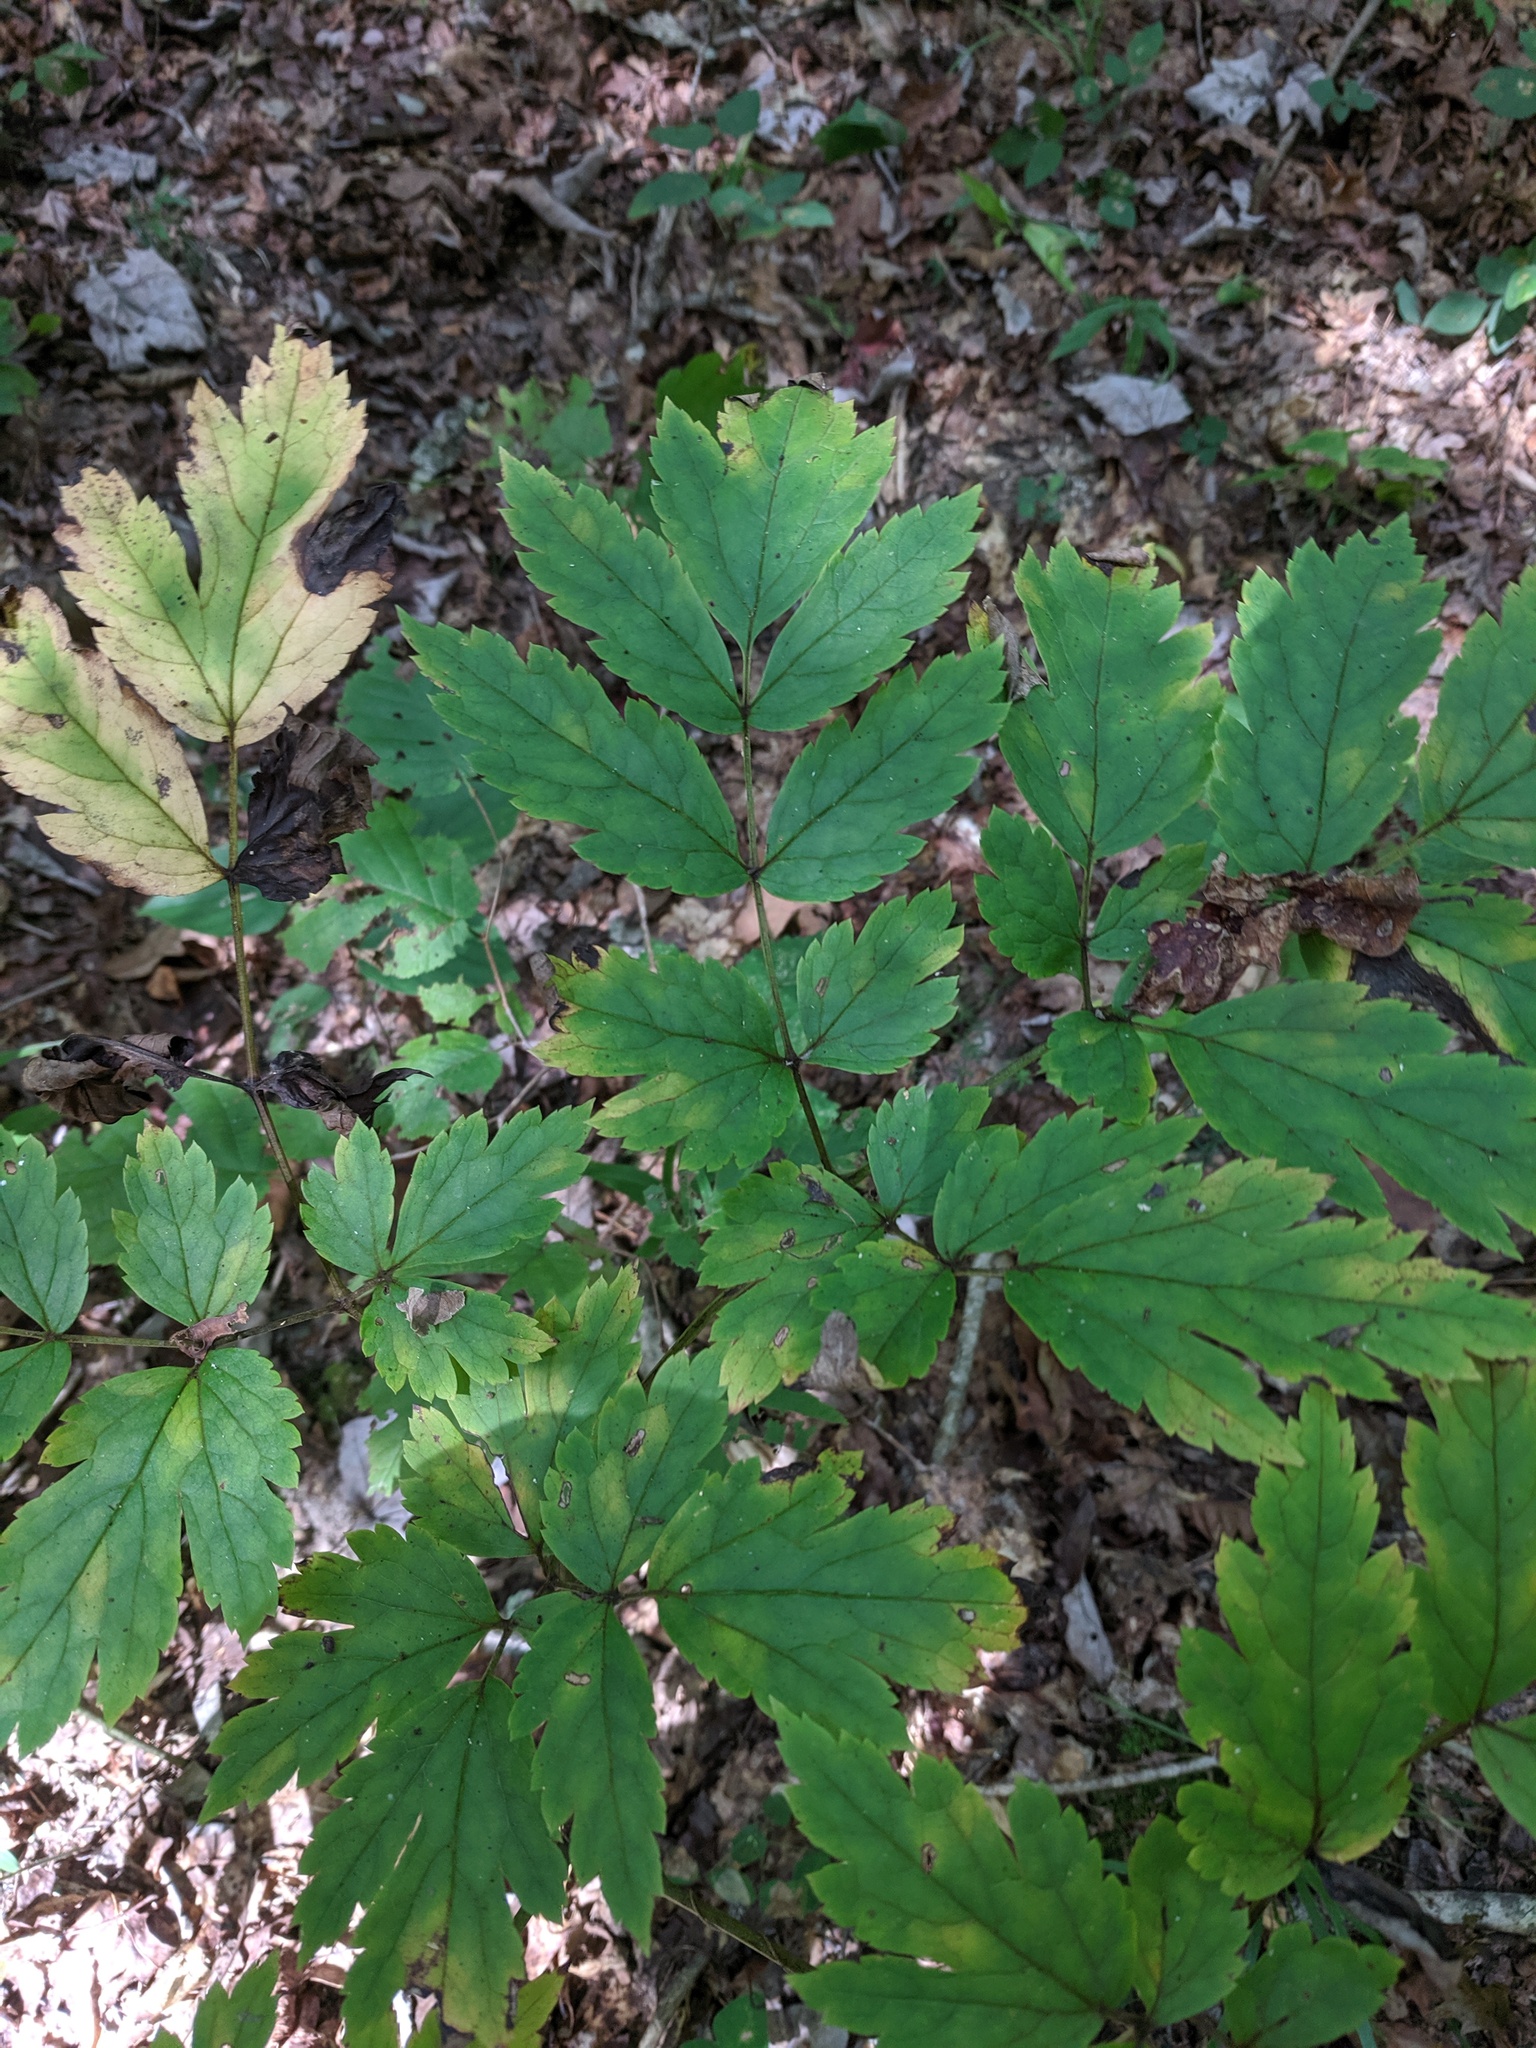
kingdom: Plantae
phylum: Tracheophyta
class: Magnoliopsida
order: Ranunculales
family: Ranunculaceae
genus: Actaea
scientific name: Actaea racemosa
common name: Black cohosh
